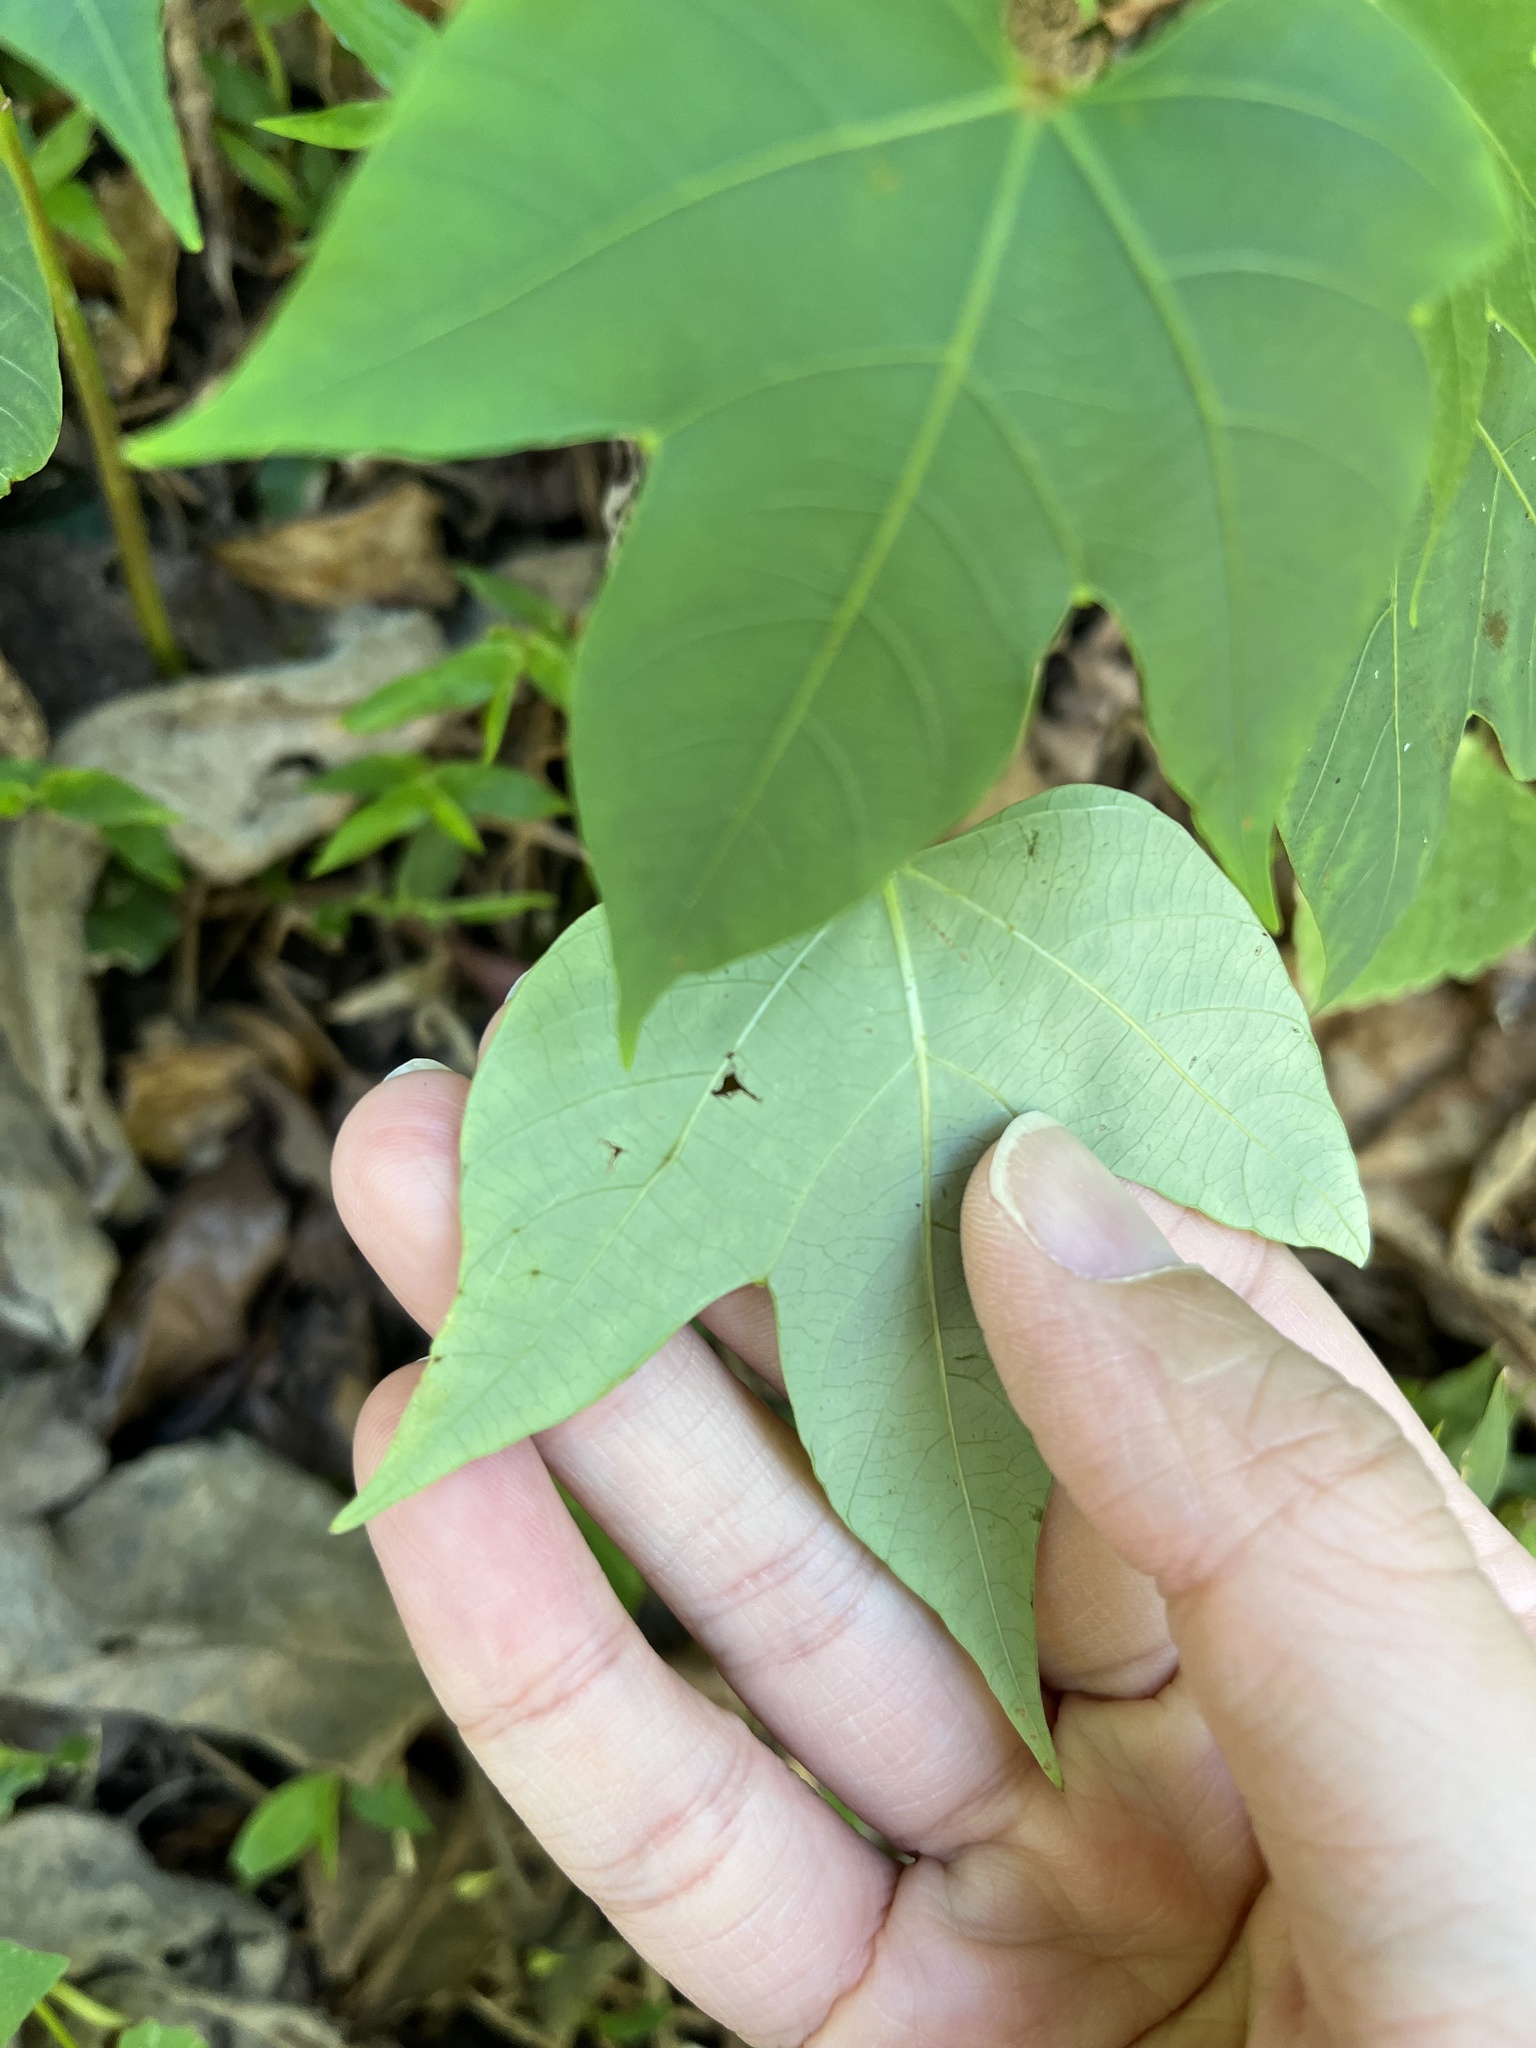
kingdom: Plantae
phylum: Tracheophyta
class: Magnoliopsida
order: Malpighiales
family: Euphorbiaceae
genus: Vernicia
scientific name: Vernicia montana
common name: Mu oil tree
